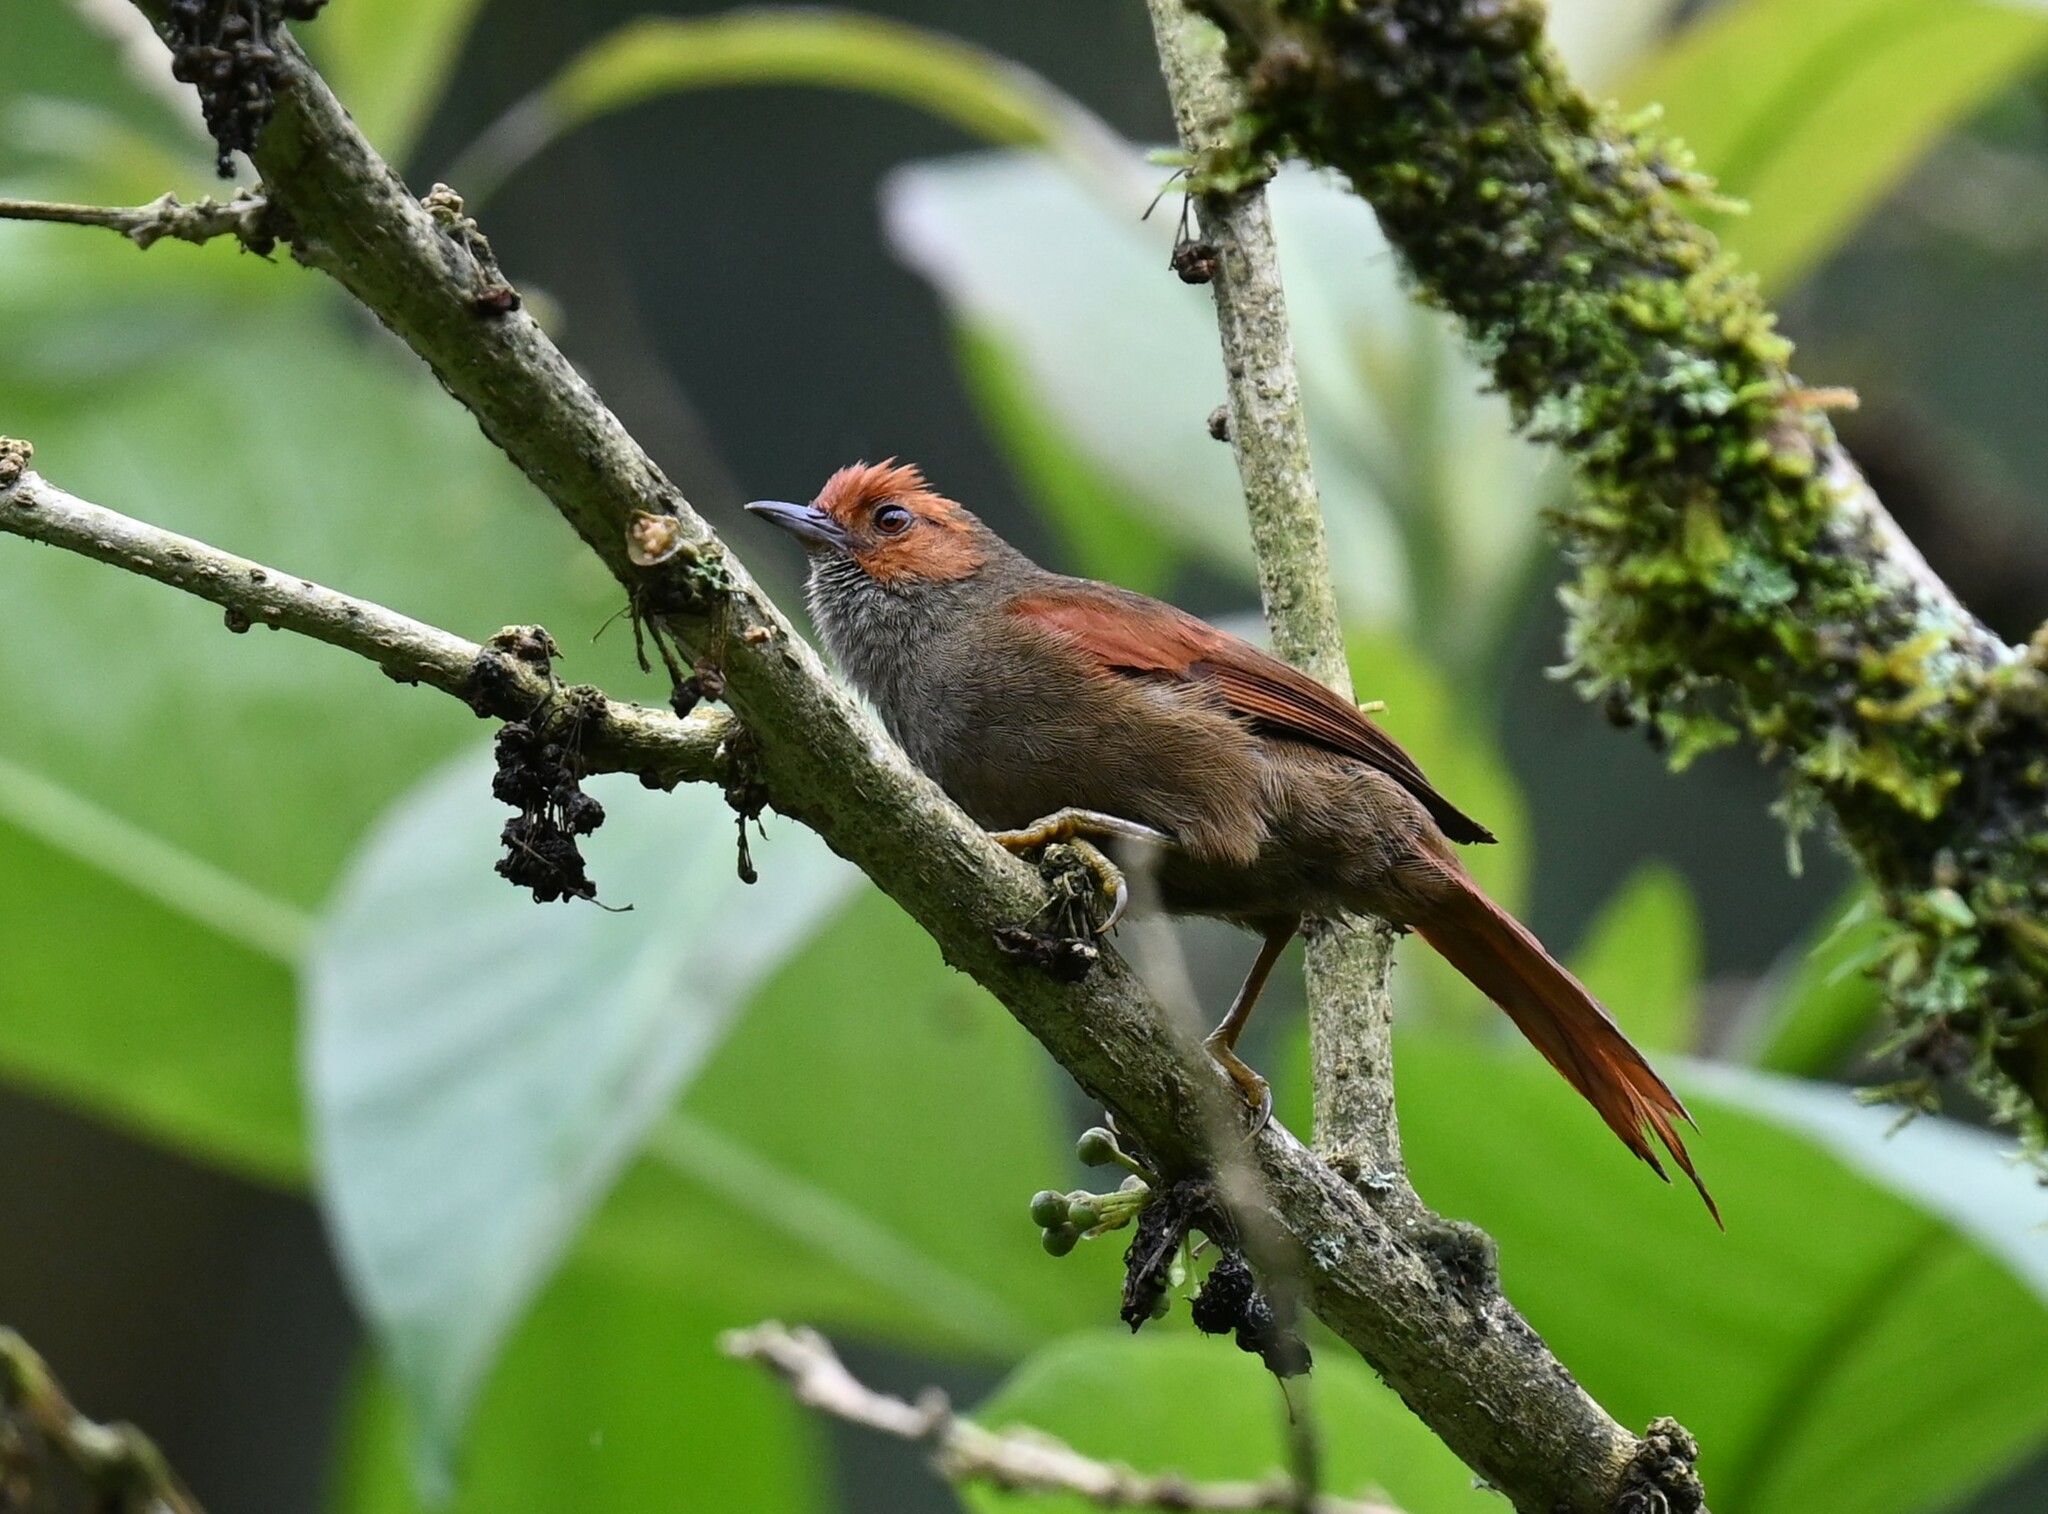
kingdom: Animalia
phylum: Chordata
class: Aves
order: Passeriformes
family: Furnariidae
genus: Cranioleuca
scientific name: Cranioleuca erythrops
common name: Red-faced spinetail
